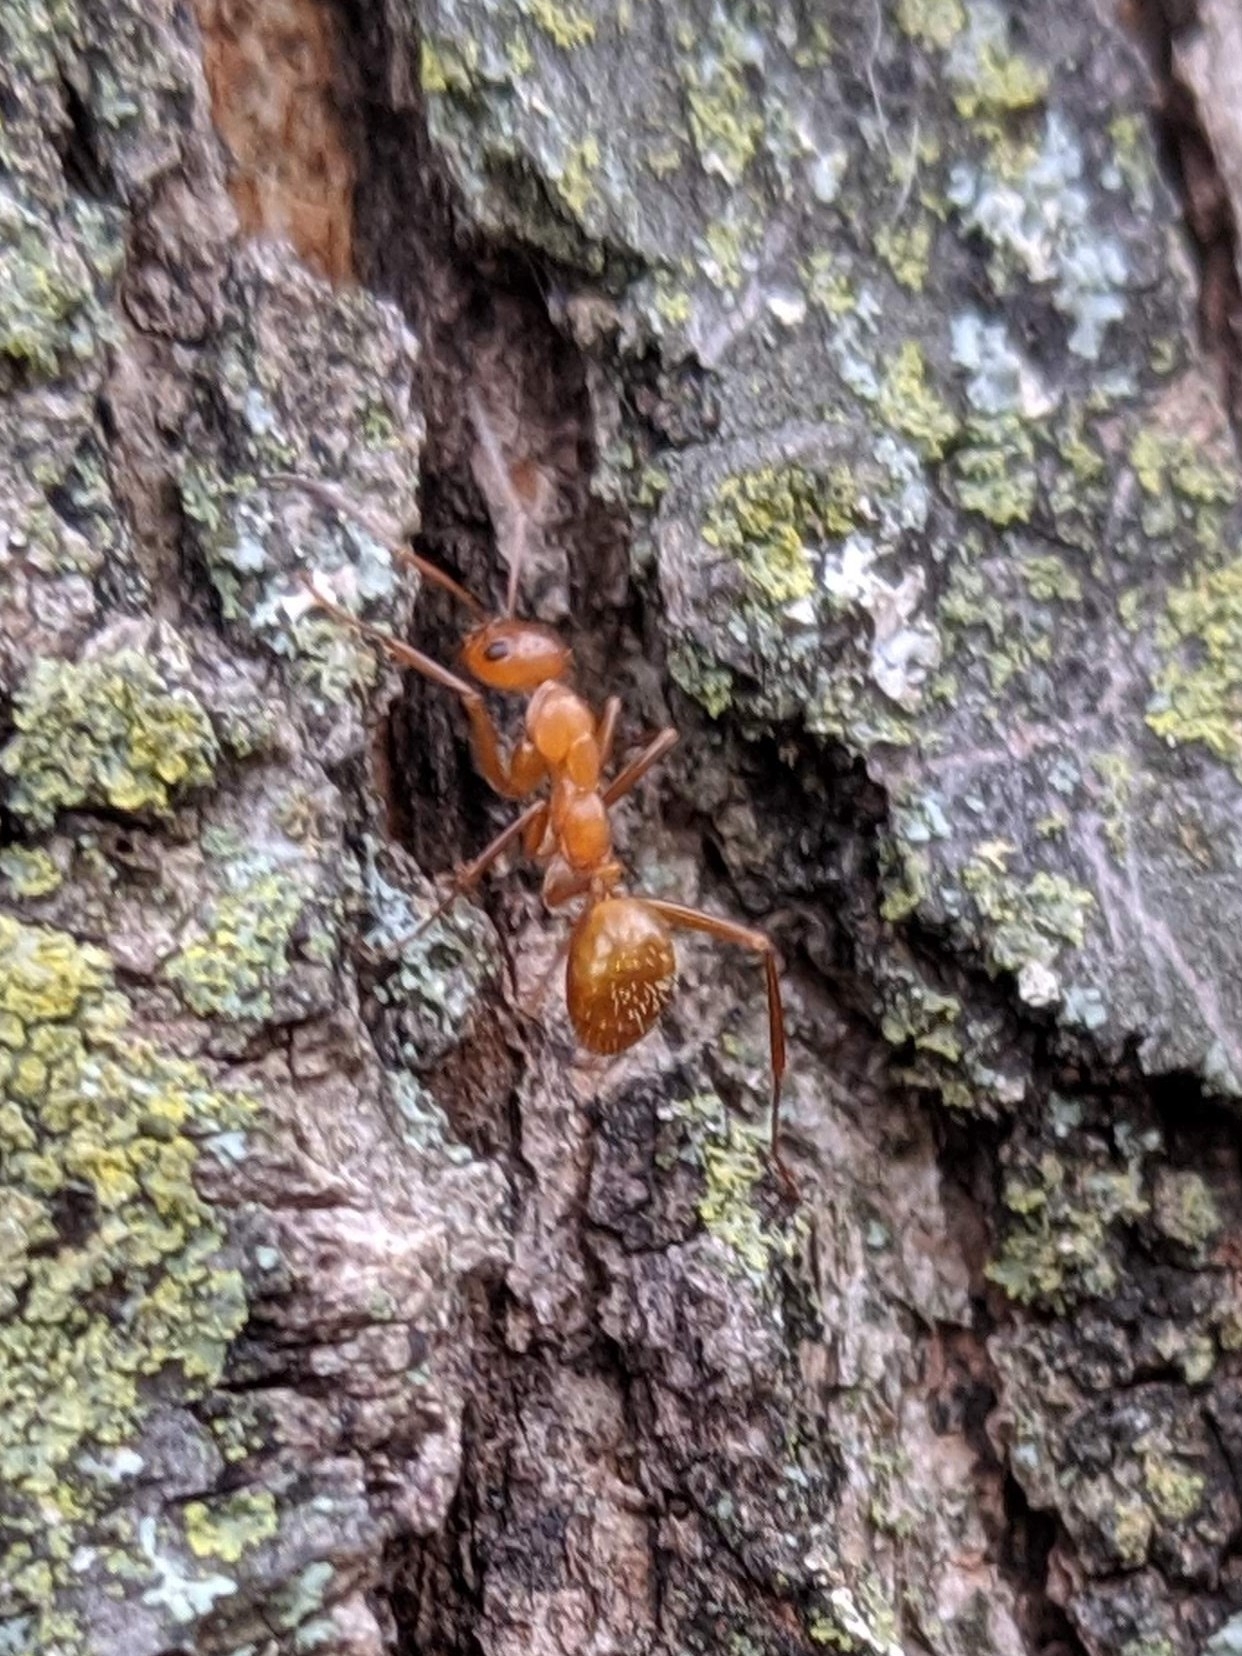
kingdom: Animalia
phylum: Arthropoda
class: Insecta
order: Hymenoptera
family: Formicidae
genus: Formica
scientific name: Formica
